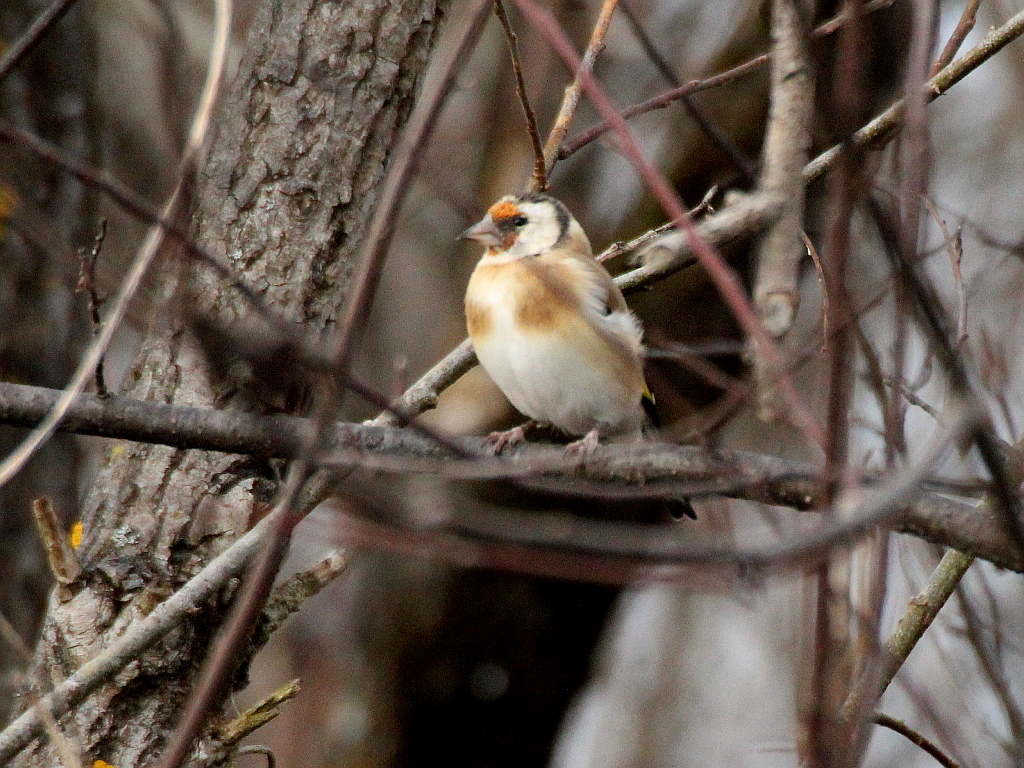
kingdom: Animalia
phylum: Chordata
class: Aves
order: Passeriformes
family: Fringillidae
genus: Carduelis
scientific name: Carduelis carduelis
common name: European goldfinch
